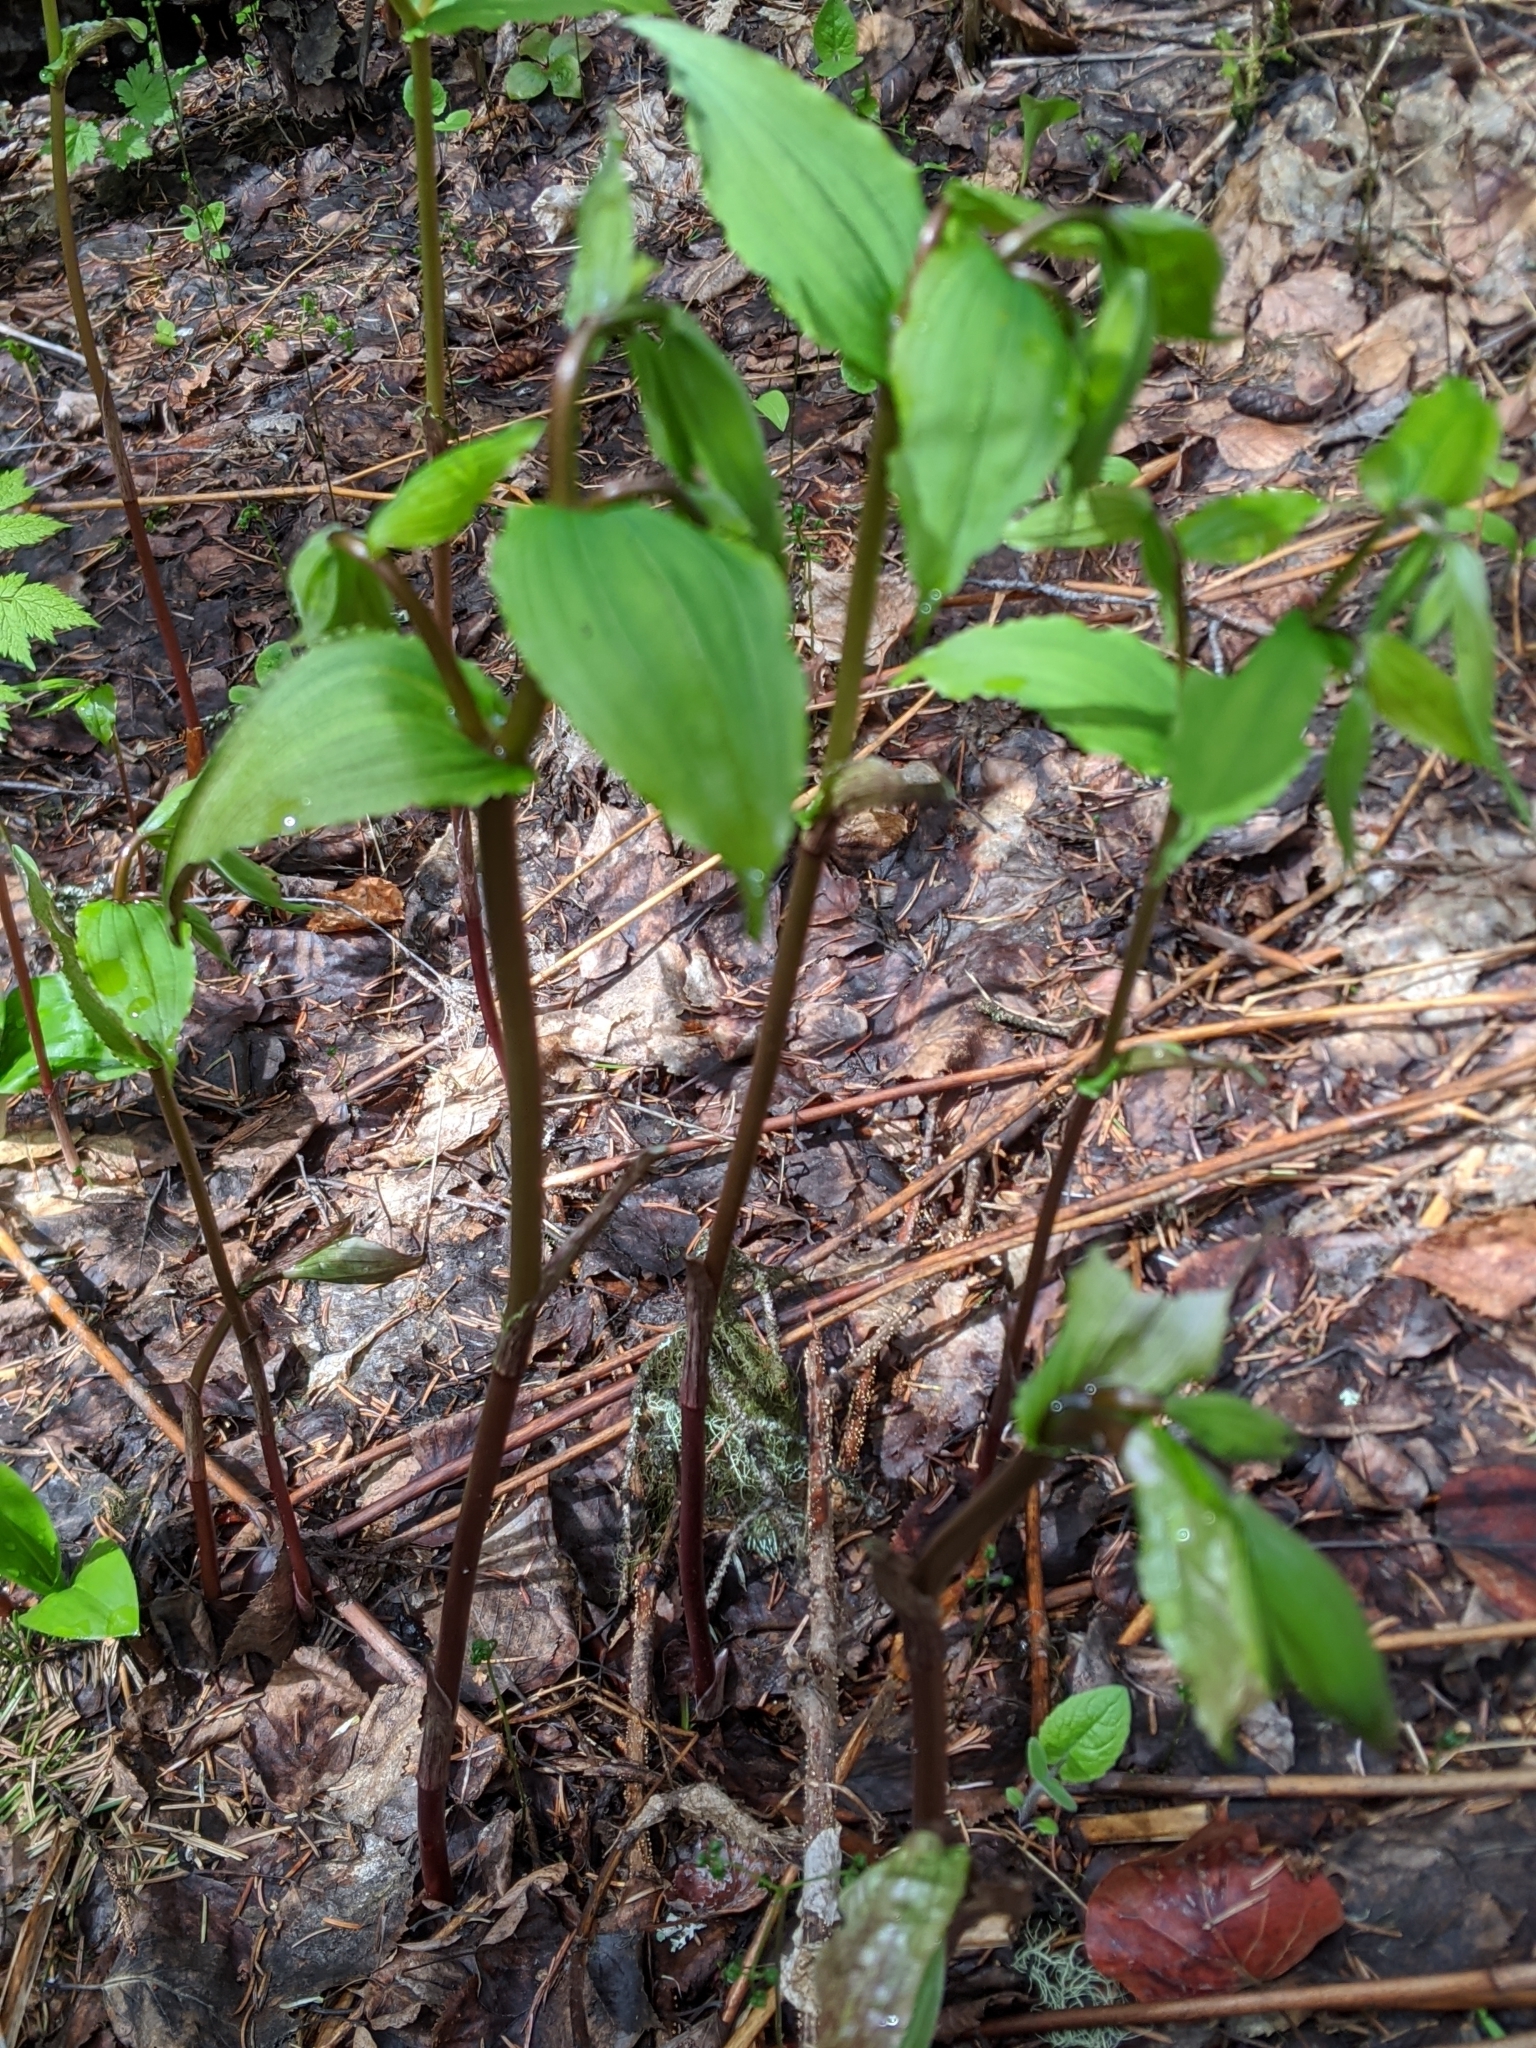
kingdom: Plantae
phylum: Tracheophyta
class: Liliopsida
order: Liliales
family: Liliaceae
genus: Prosartes
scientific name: Prosartes hookeri
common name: Fairy-bells
